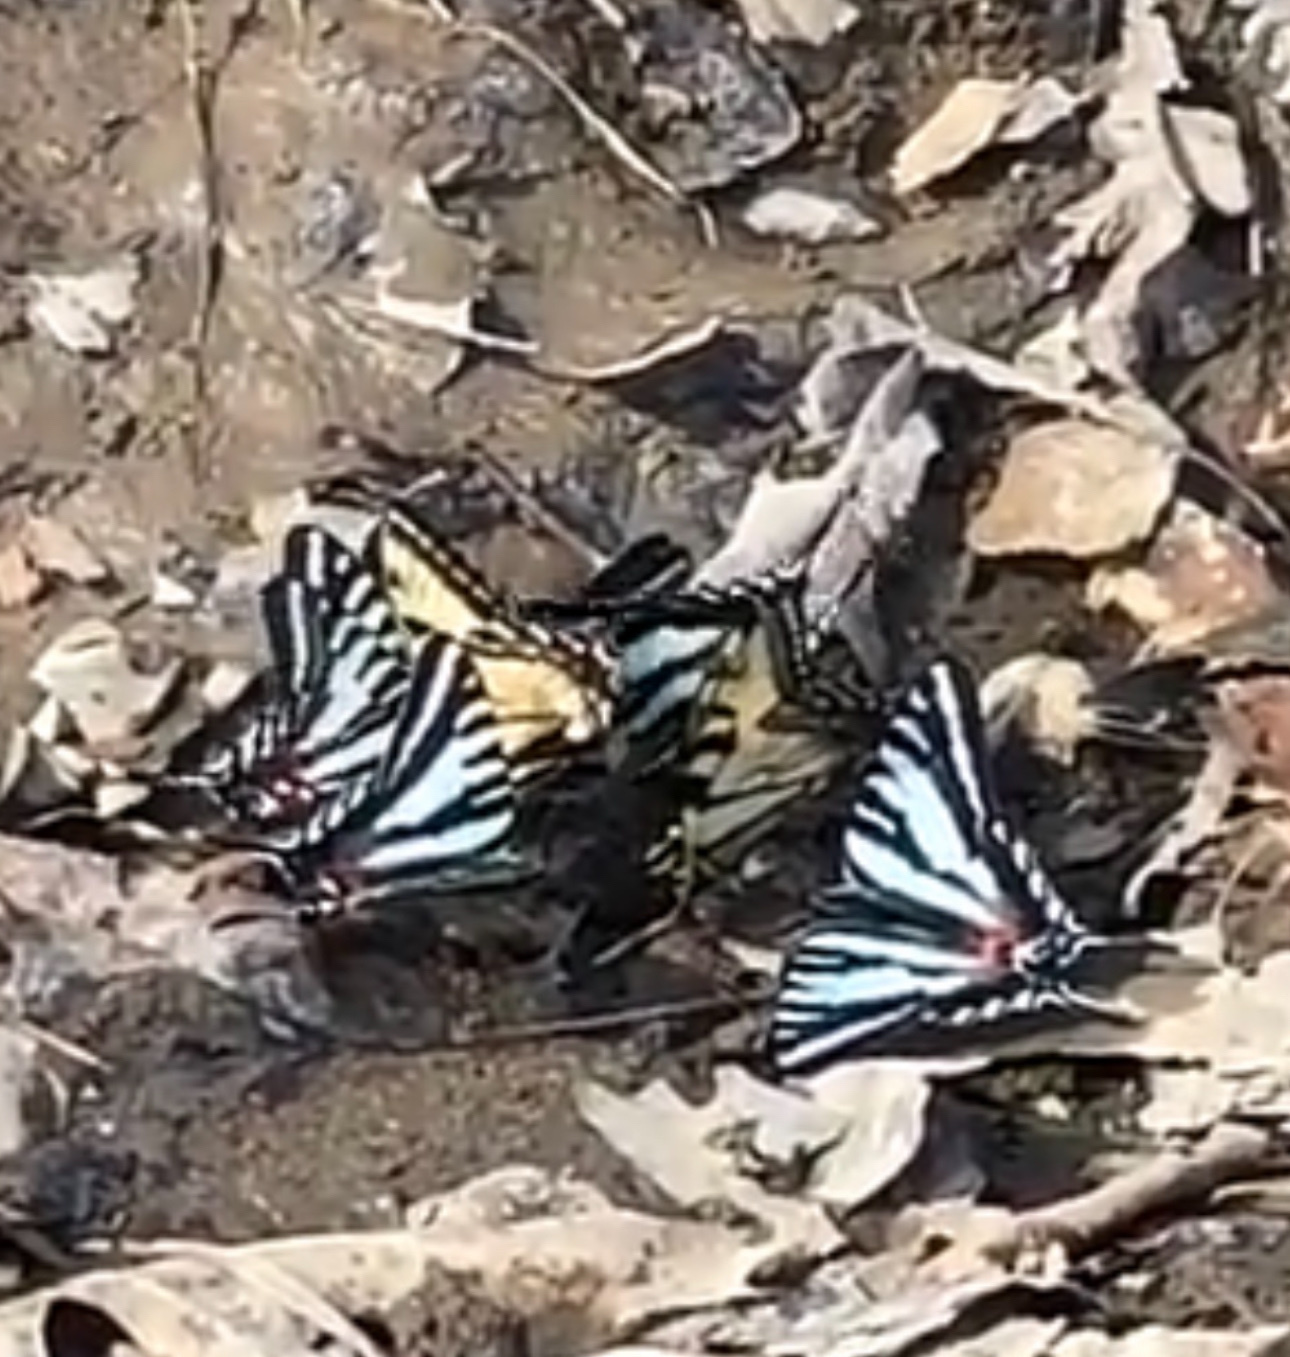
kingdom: Animalia
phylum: Arthropoda
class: Insecta
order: Lepidoptera
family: Papilionidae
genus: Papilio
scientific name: Papilio glaucus
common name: Tiger swallowtail
